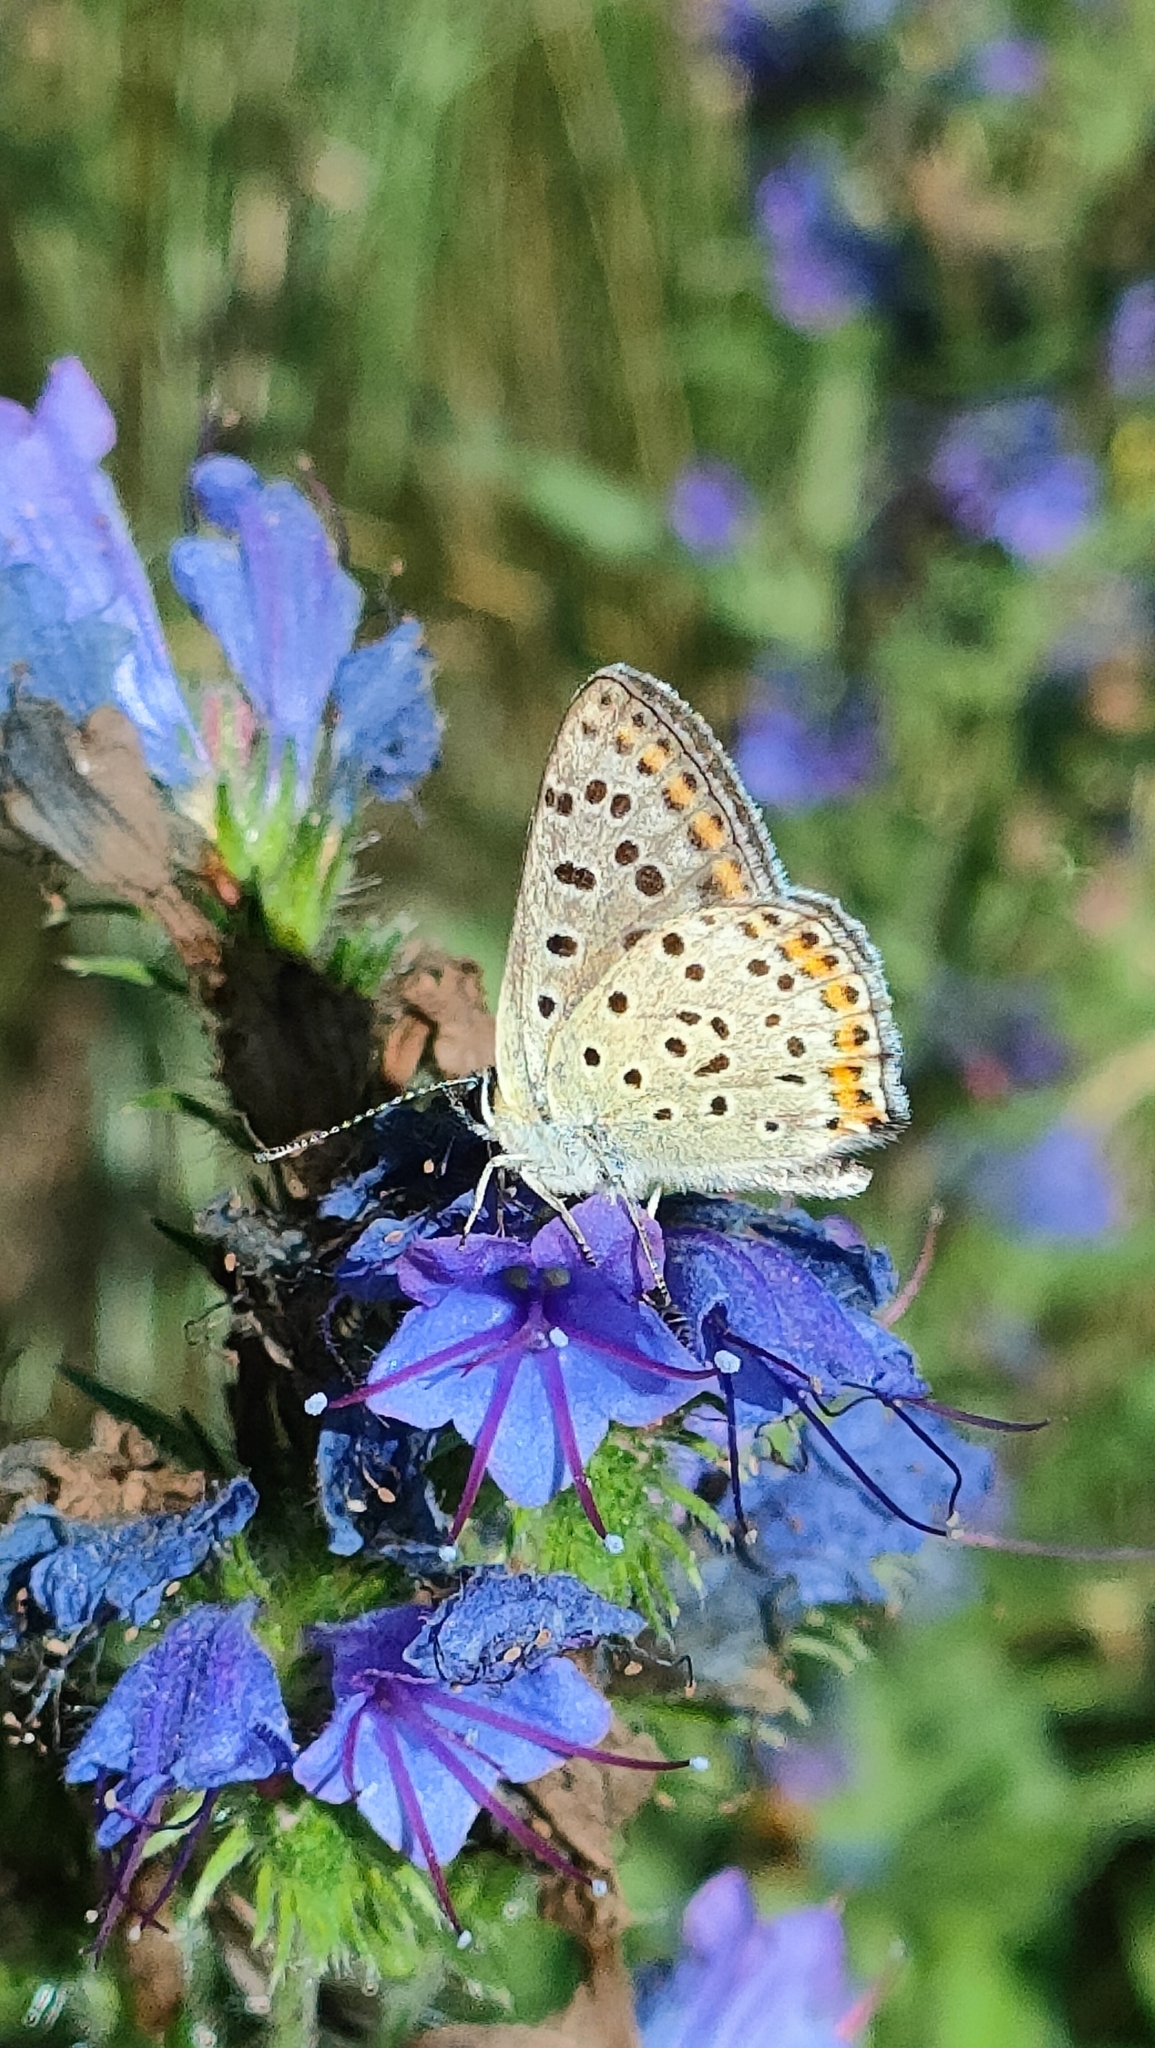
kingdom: Animalia
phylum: Arthropoda
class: Insecta
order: Lepidoptera
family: Lycaenidae
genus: Loweia
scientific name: Loweia tityrus
